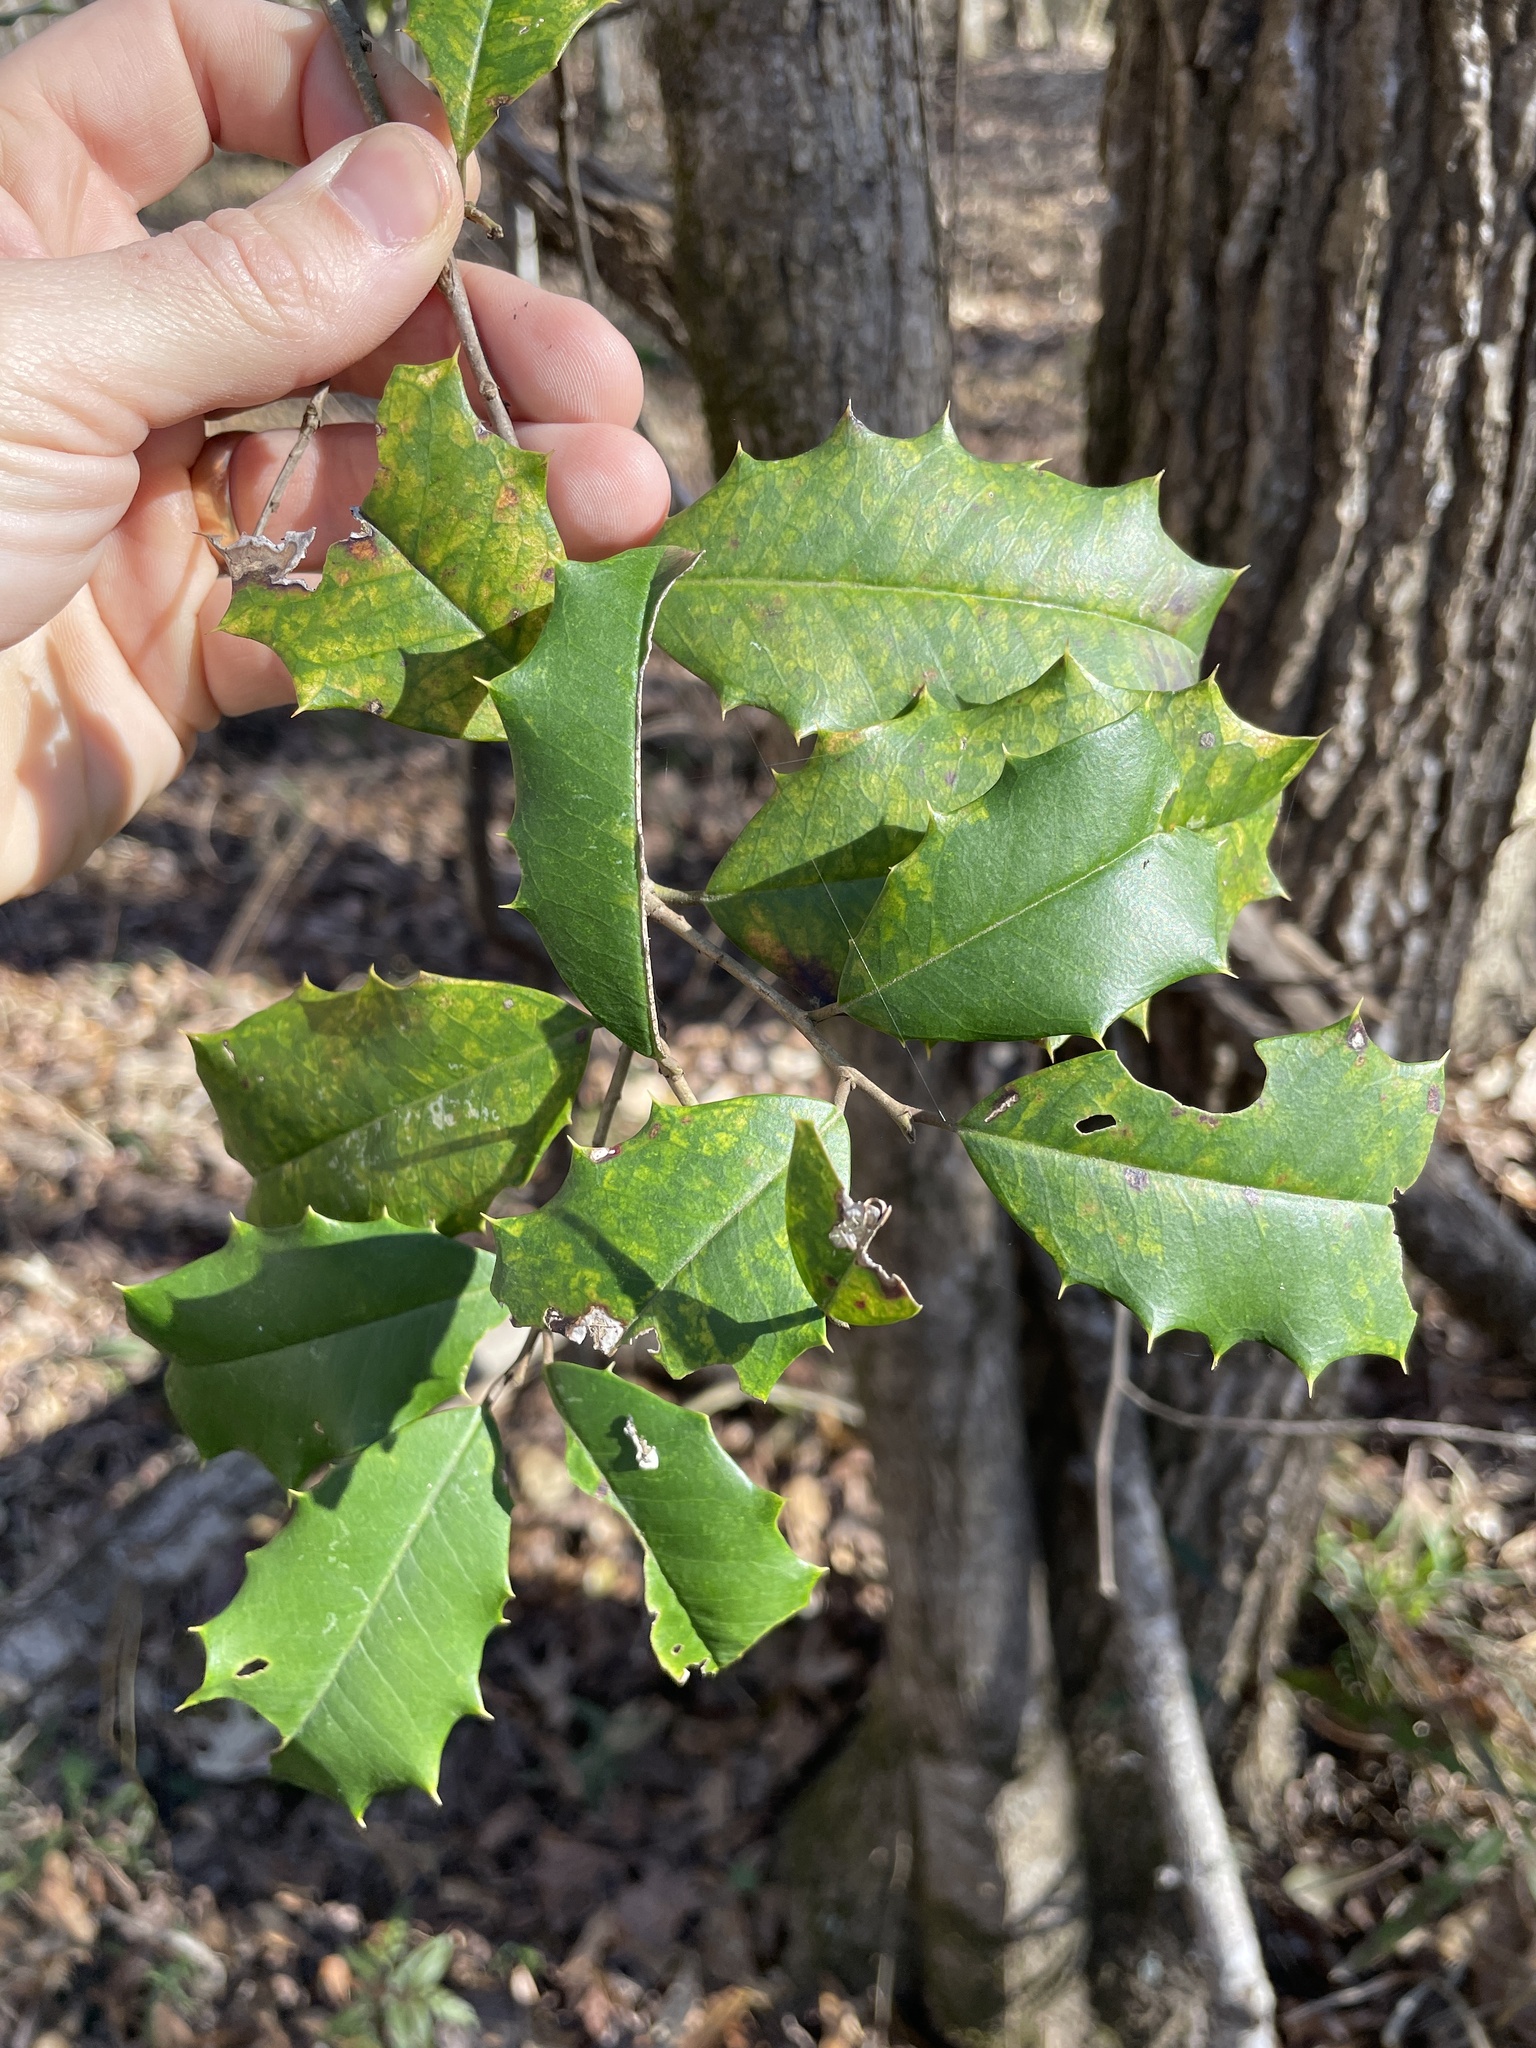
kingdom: Plantae
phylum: Tracheophyta
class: Magnoliopsida
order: Aquifoliales
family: Aquifoliaceae
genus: Ilex
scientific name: Ilex opaca
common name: American holly
